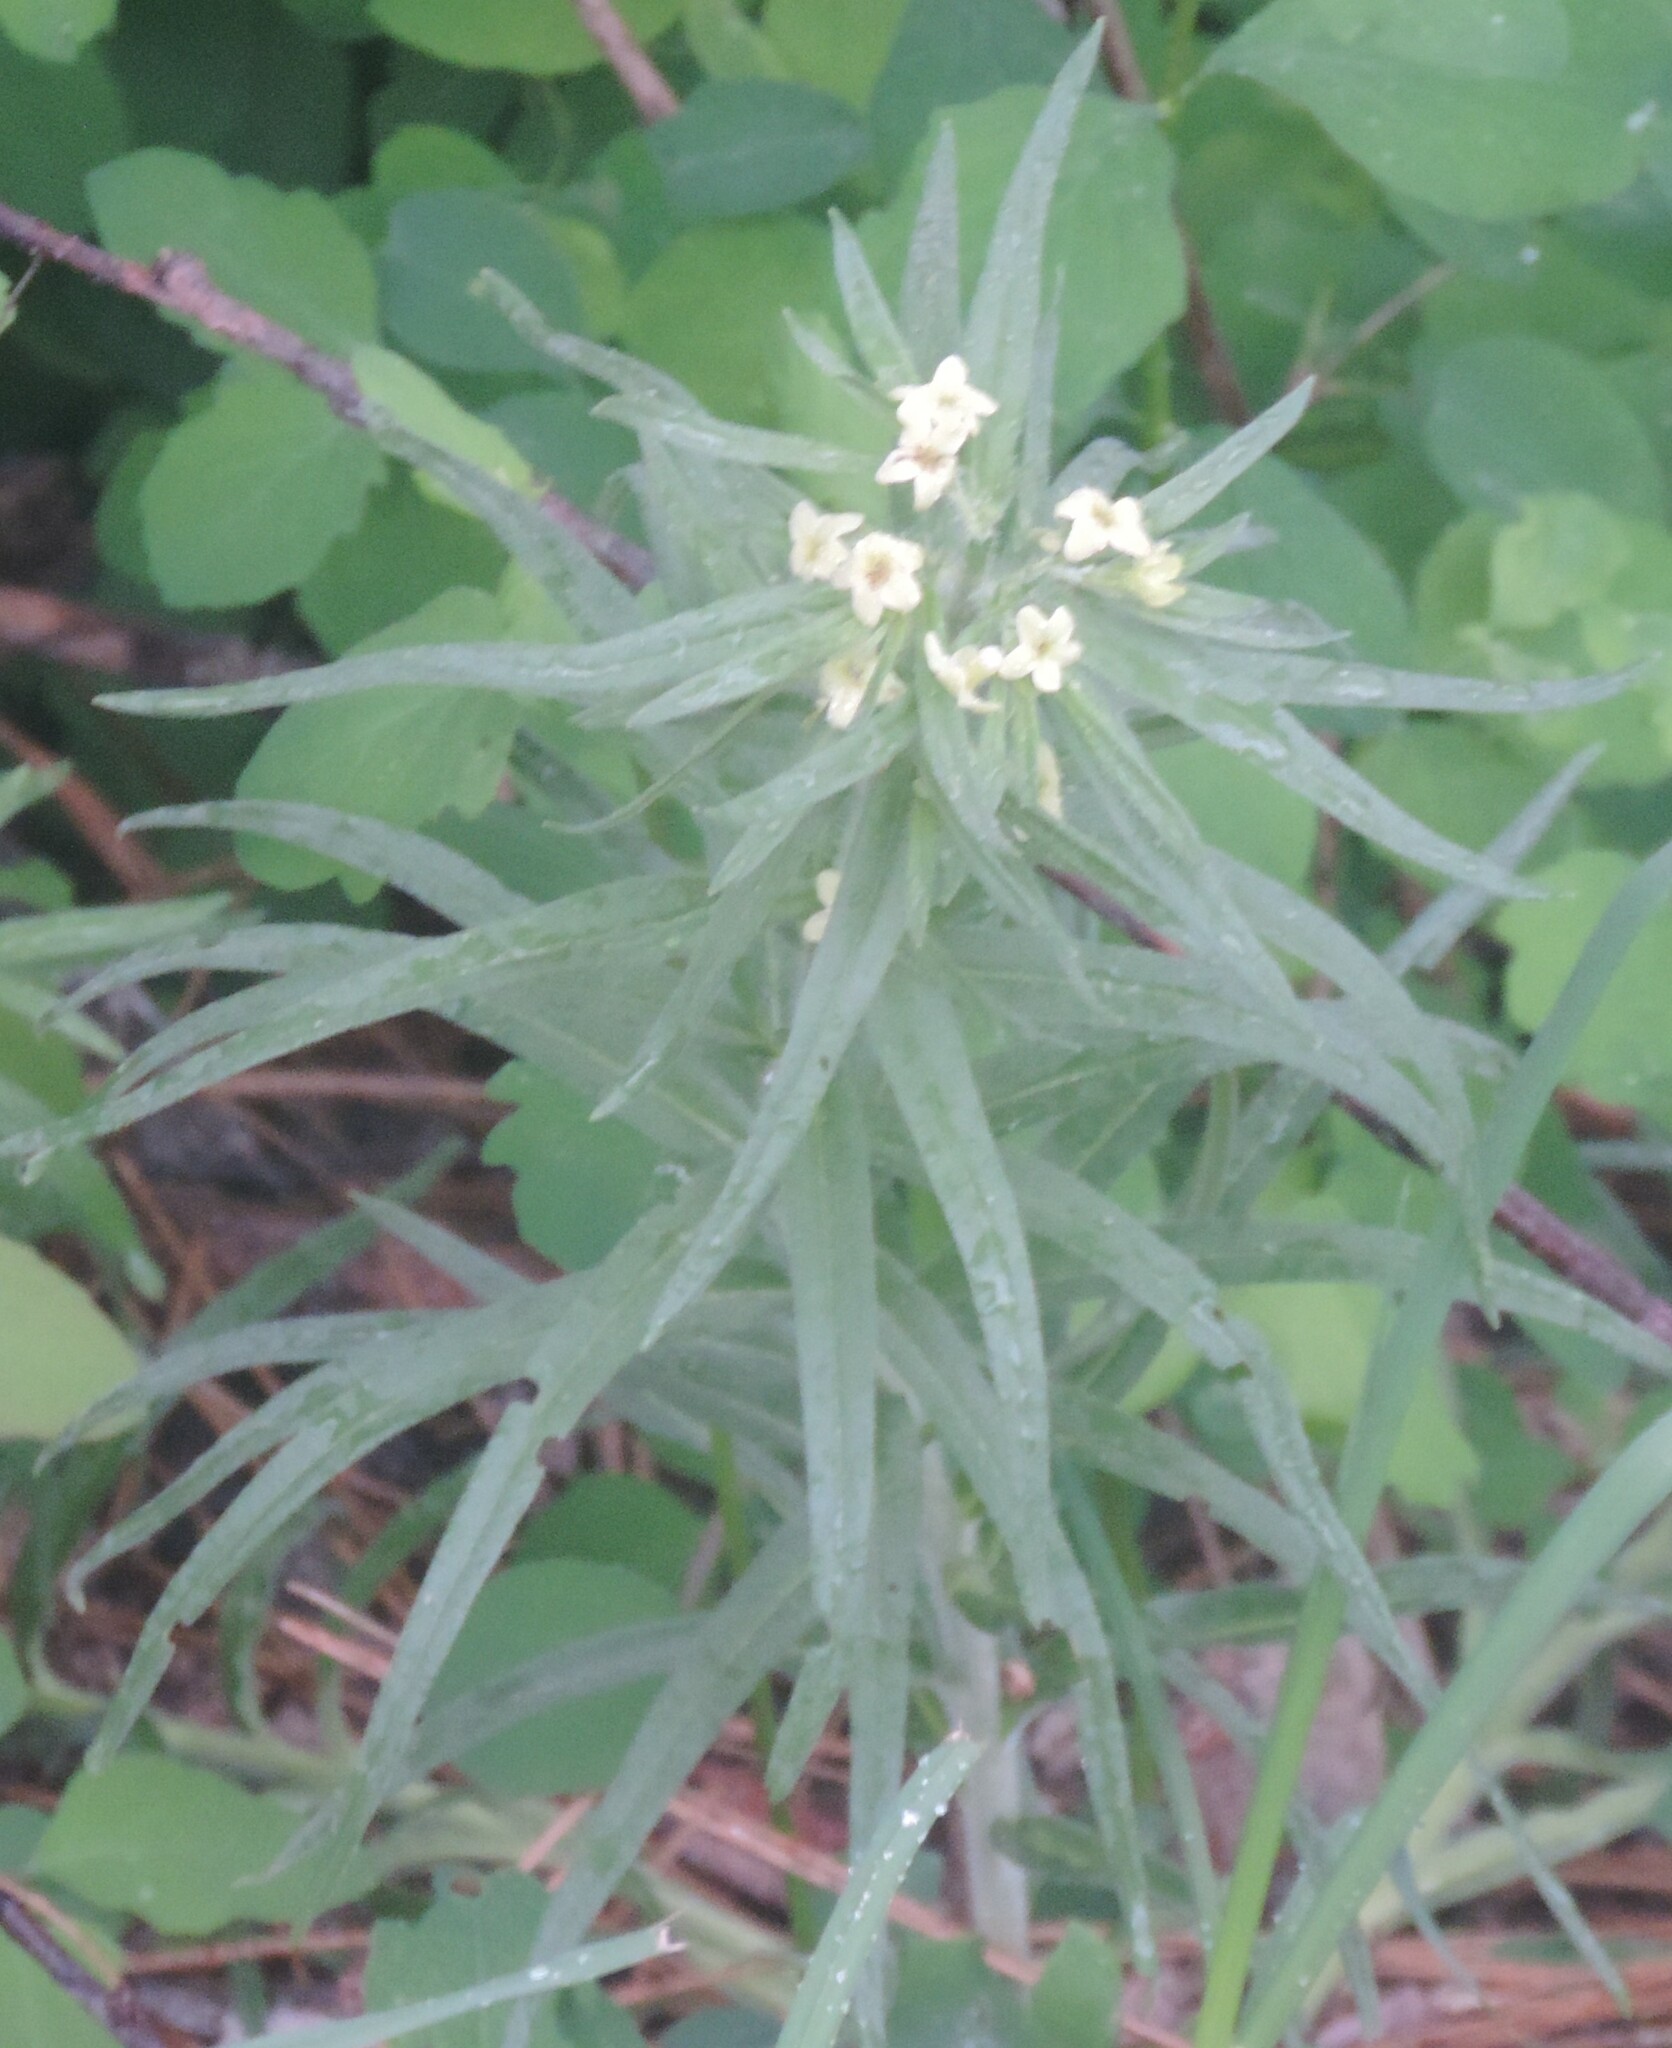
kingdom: Plantae
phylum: Tracheophyta
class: Magnoliopsida
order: Boraginales
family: Boraginaceae
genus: Lithospermum
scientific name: Lithospermum ruderale
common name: Western gromwell
